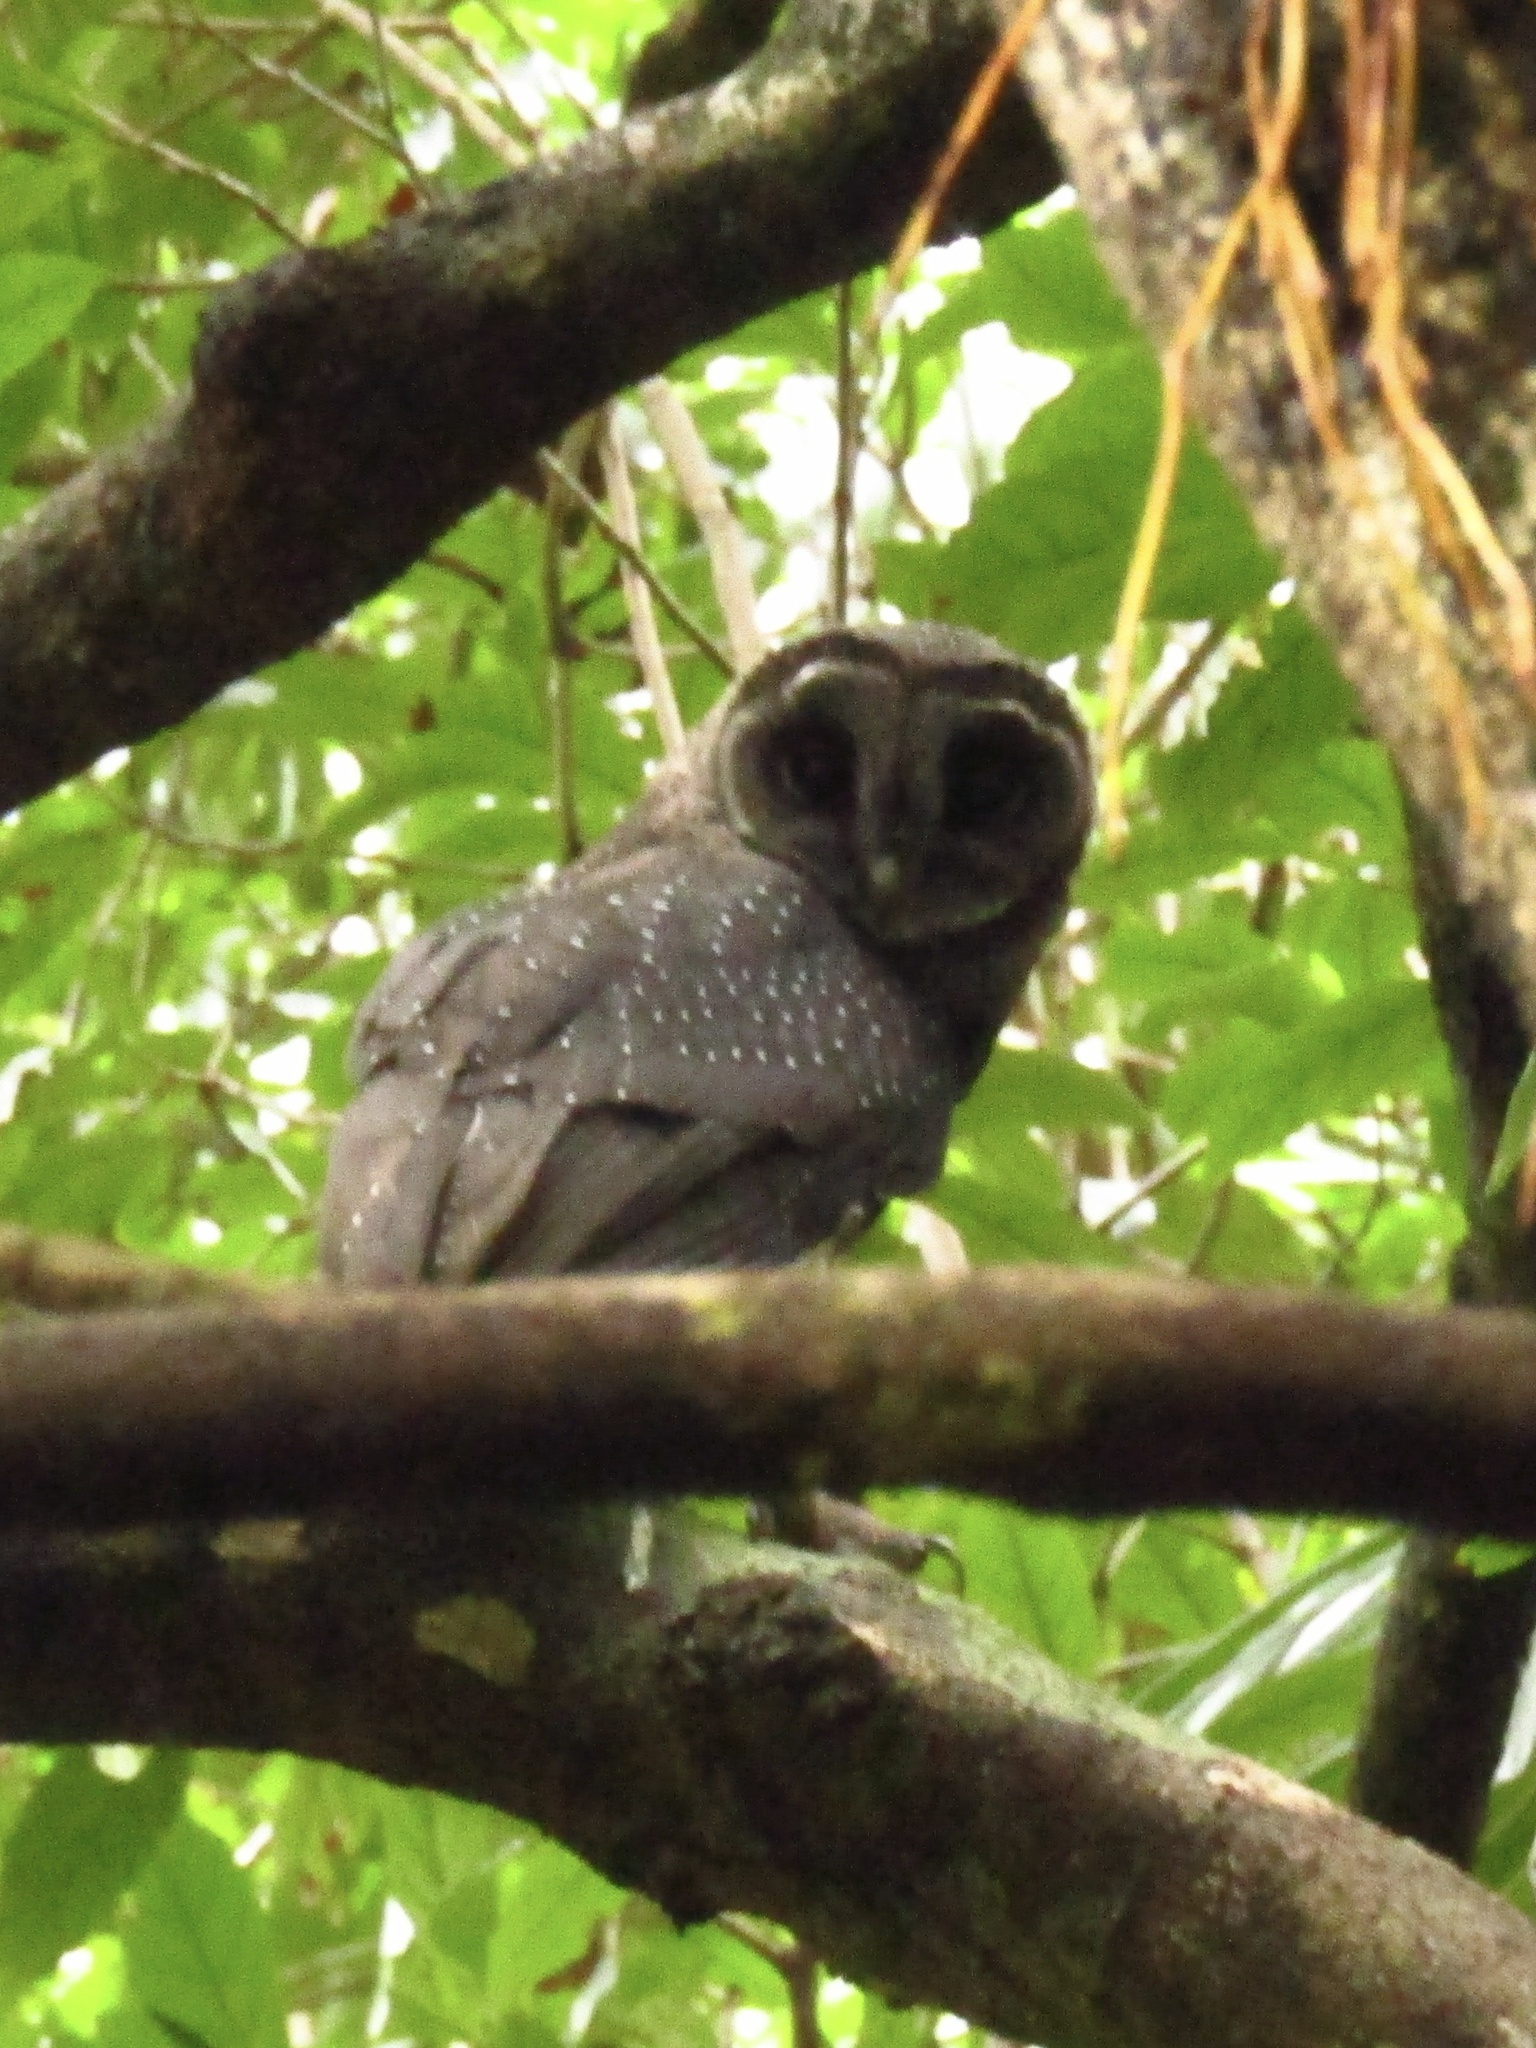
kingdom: Animalia
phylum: Chordata
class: Aves
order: Strigiformes
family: Tytonidae
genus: Tyto
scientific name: Tyto tenebricosa
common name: Greater sooty owl
